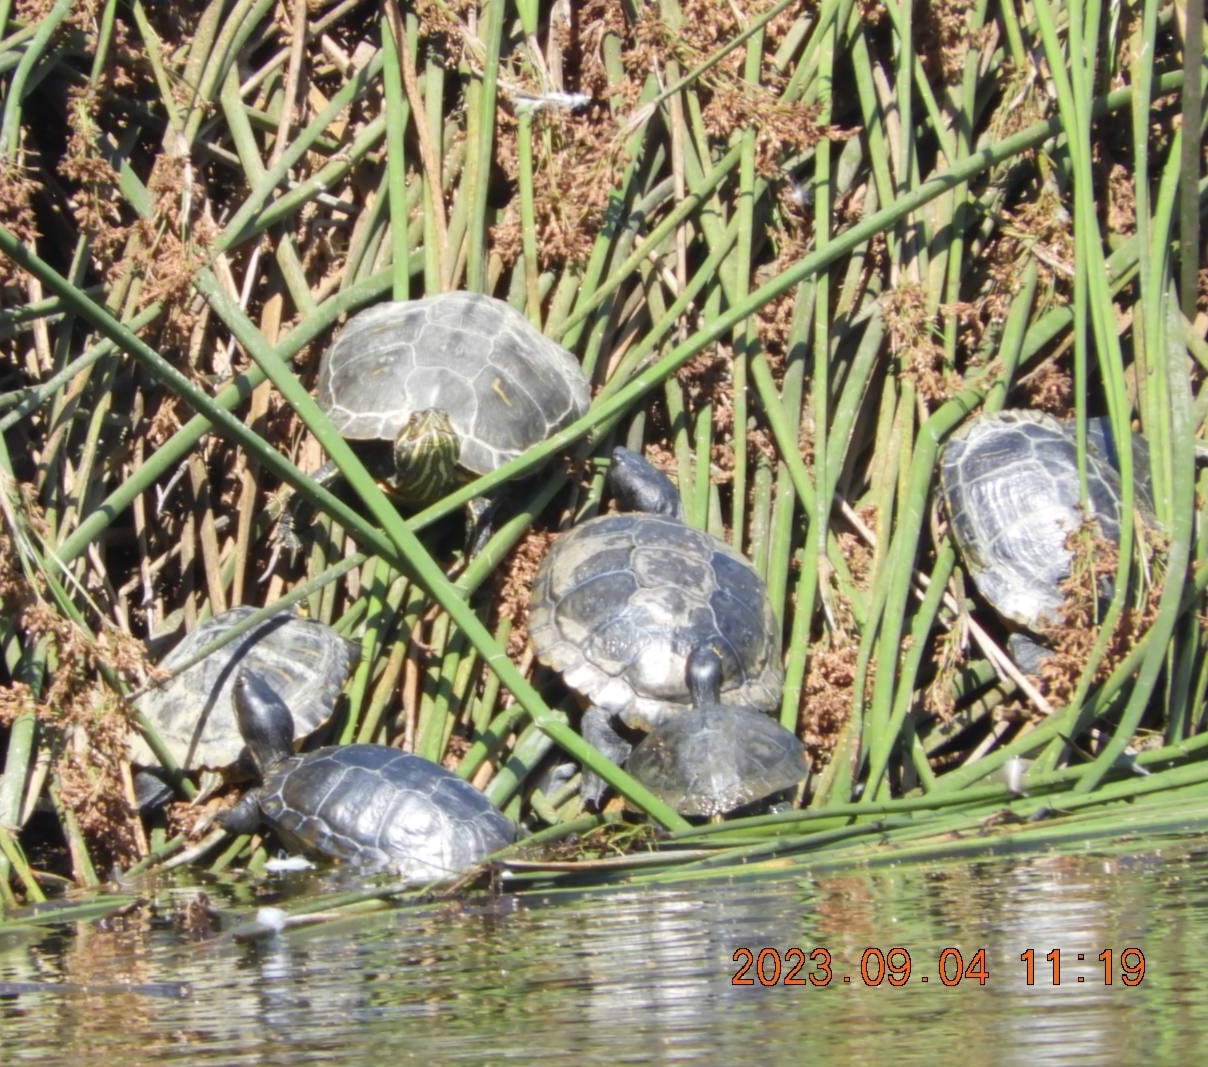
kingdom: Animalia
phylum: Chordata
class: Testudines
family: Emydidae
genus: Trachemys
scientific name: Trachemys scripta
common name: Slider
